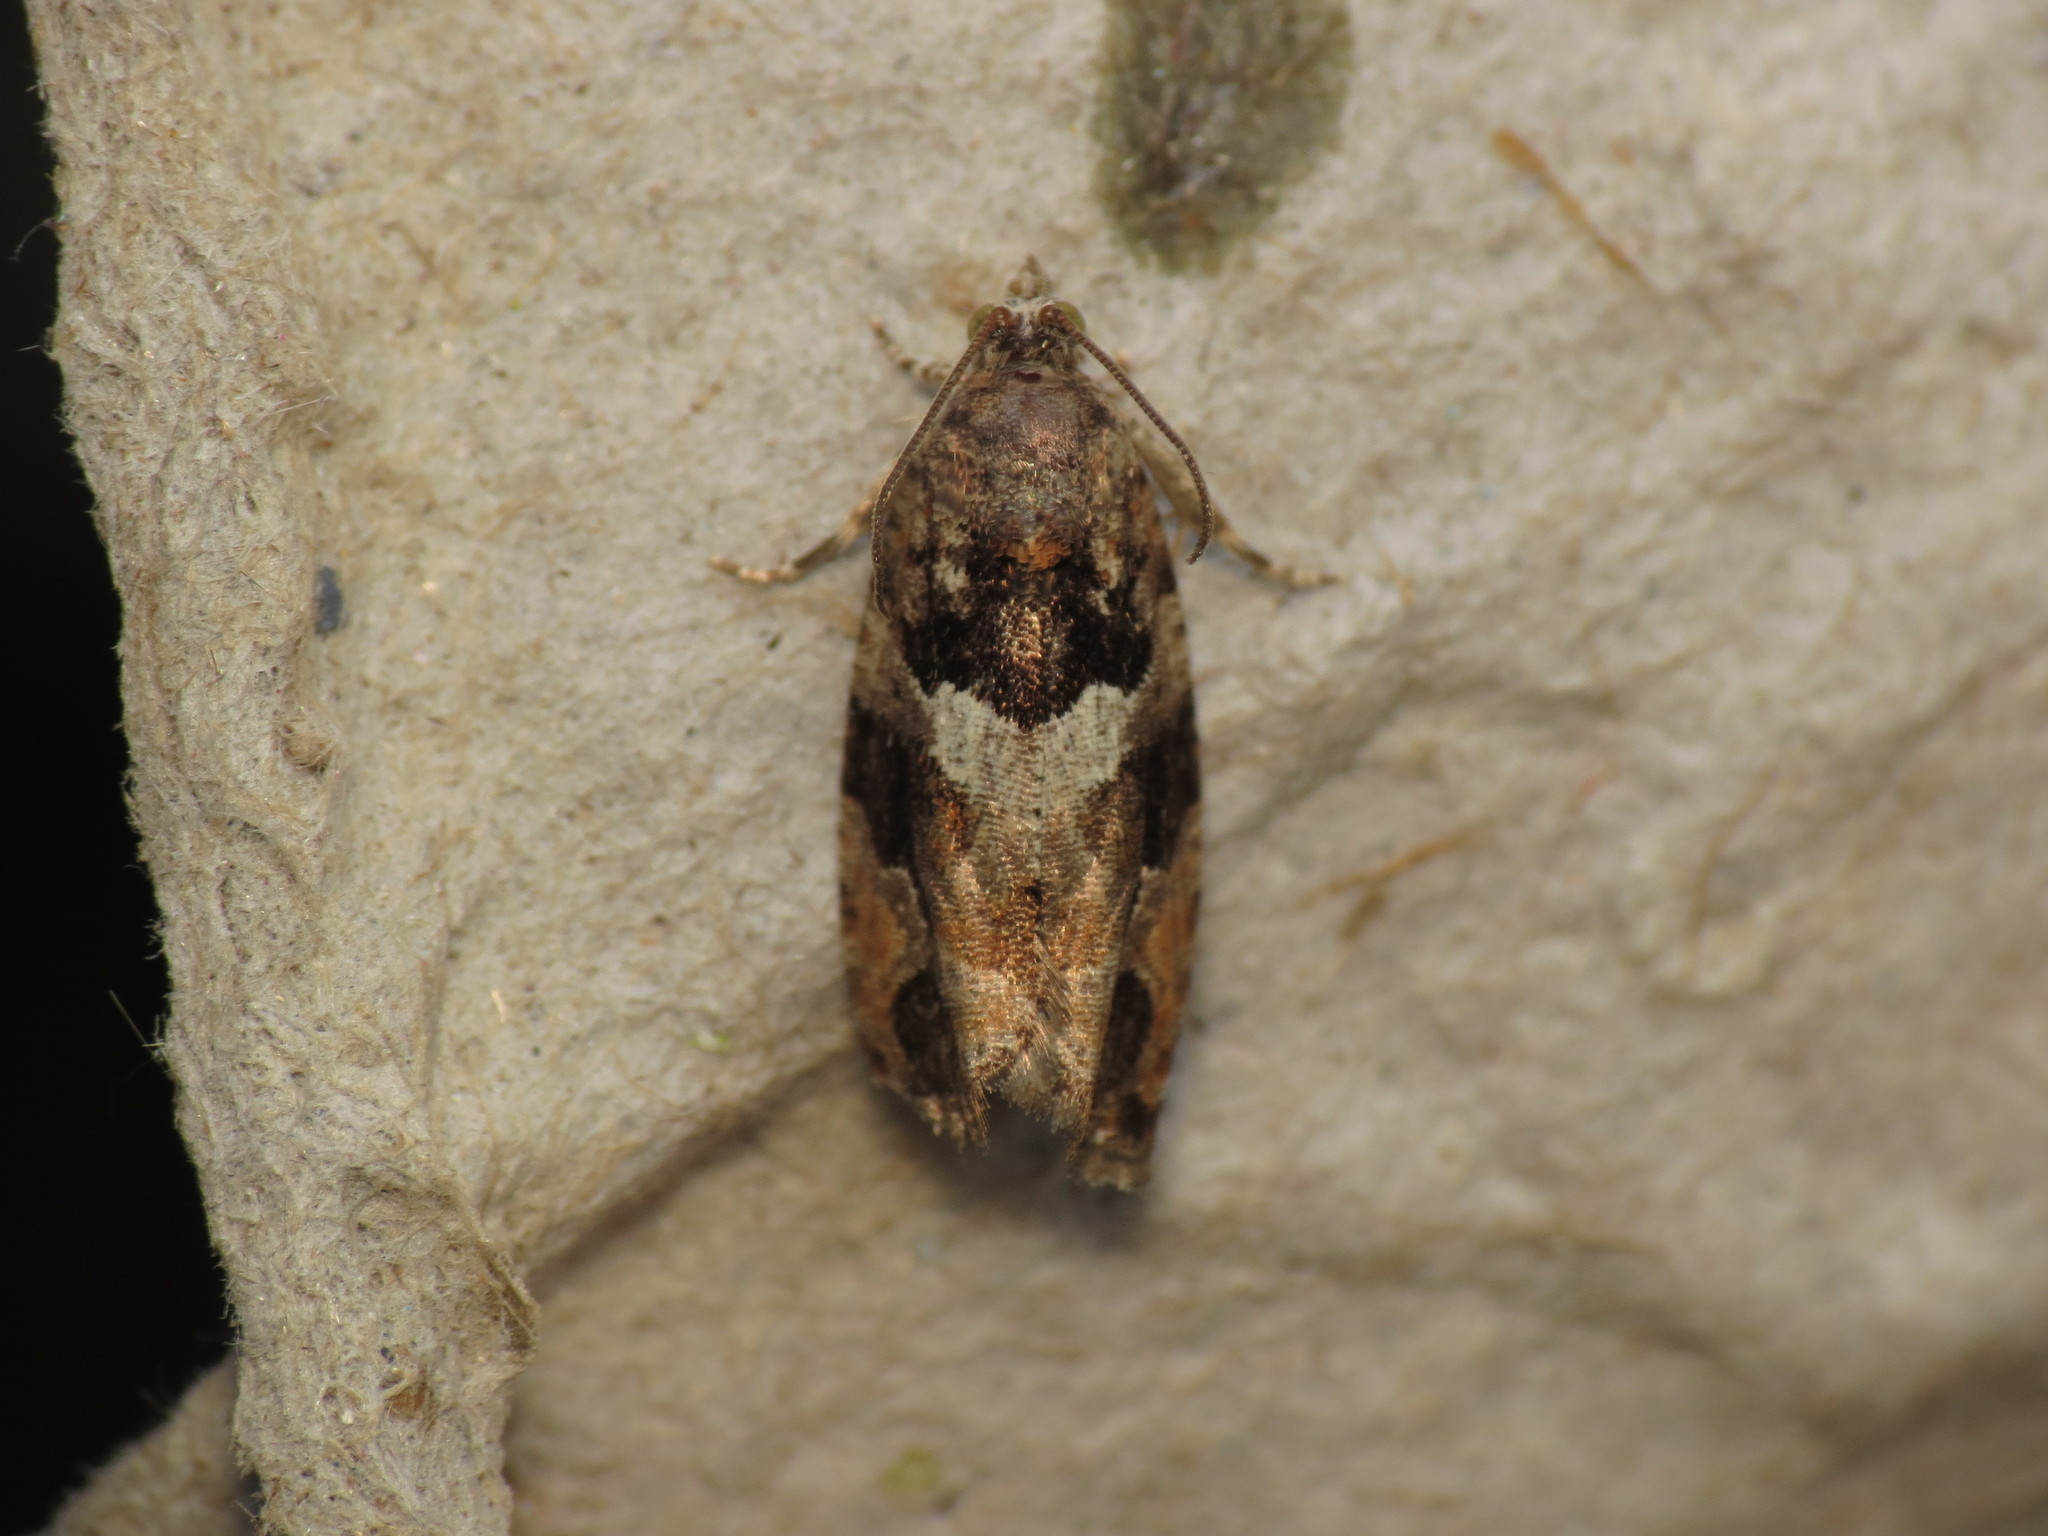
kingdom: Animalia
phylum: Arthropoda
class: Insecta
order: Lepidoptera
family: Tortricidae
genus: Eudemis
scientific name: Eudemis profundana
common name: Diamond-back marble
